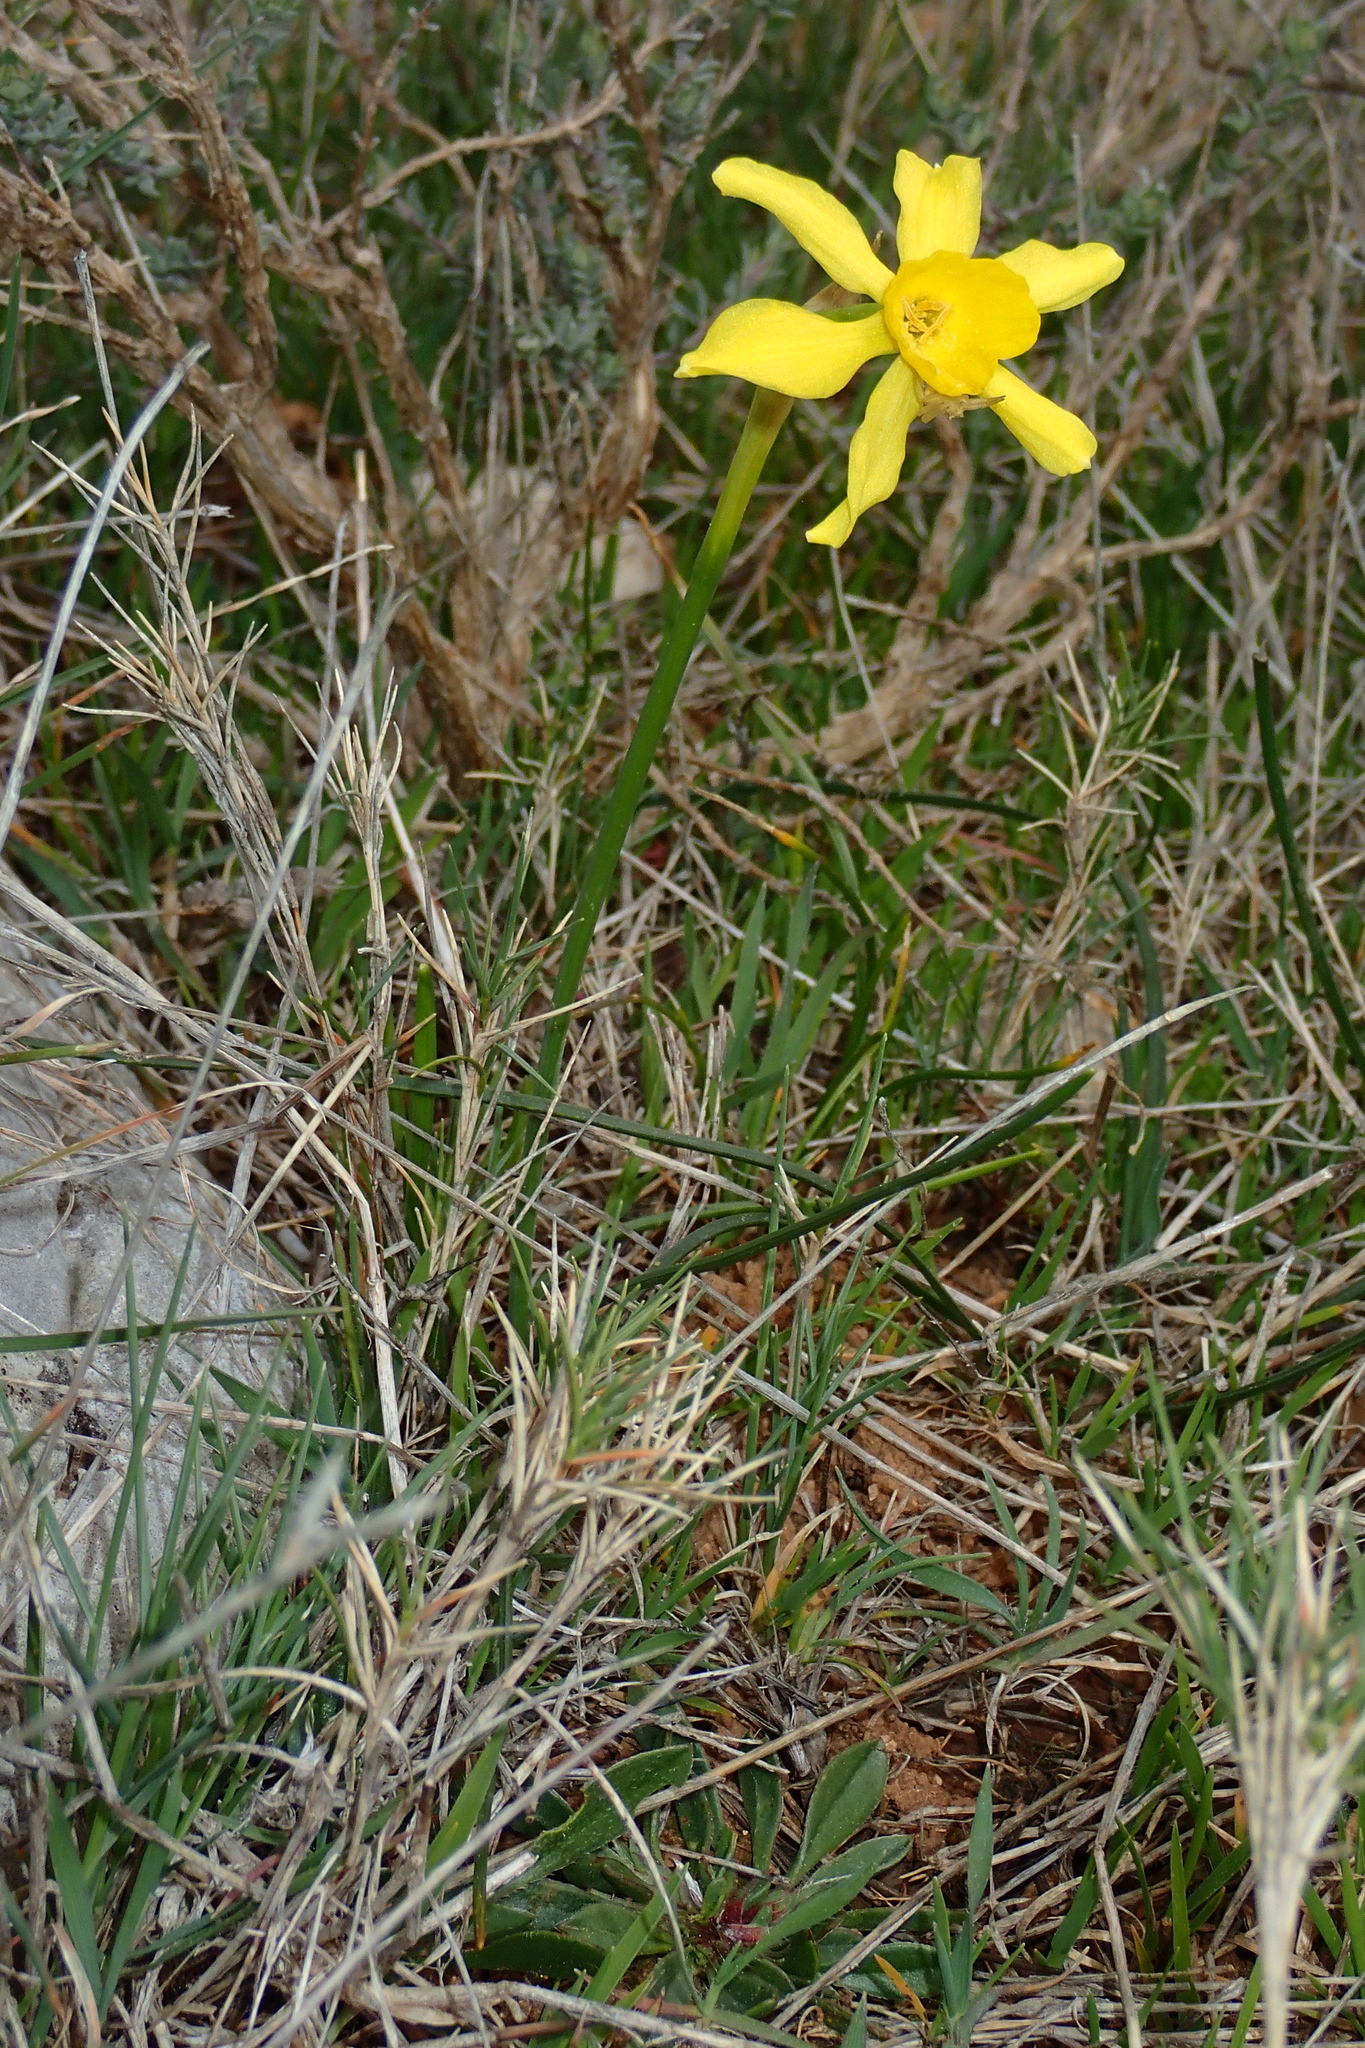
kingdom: Plantae
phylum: Tracheophyta
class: Liliopsida
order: Asparagales
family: Amaryllidaceae
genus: Narcissus
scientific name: Narcissus assoanus
